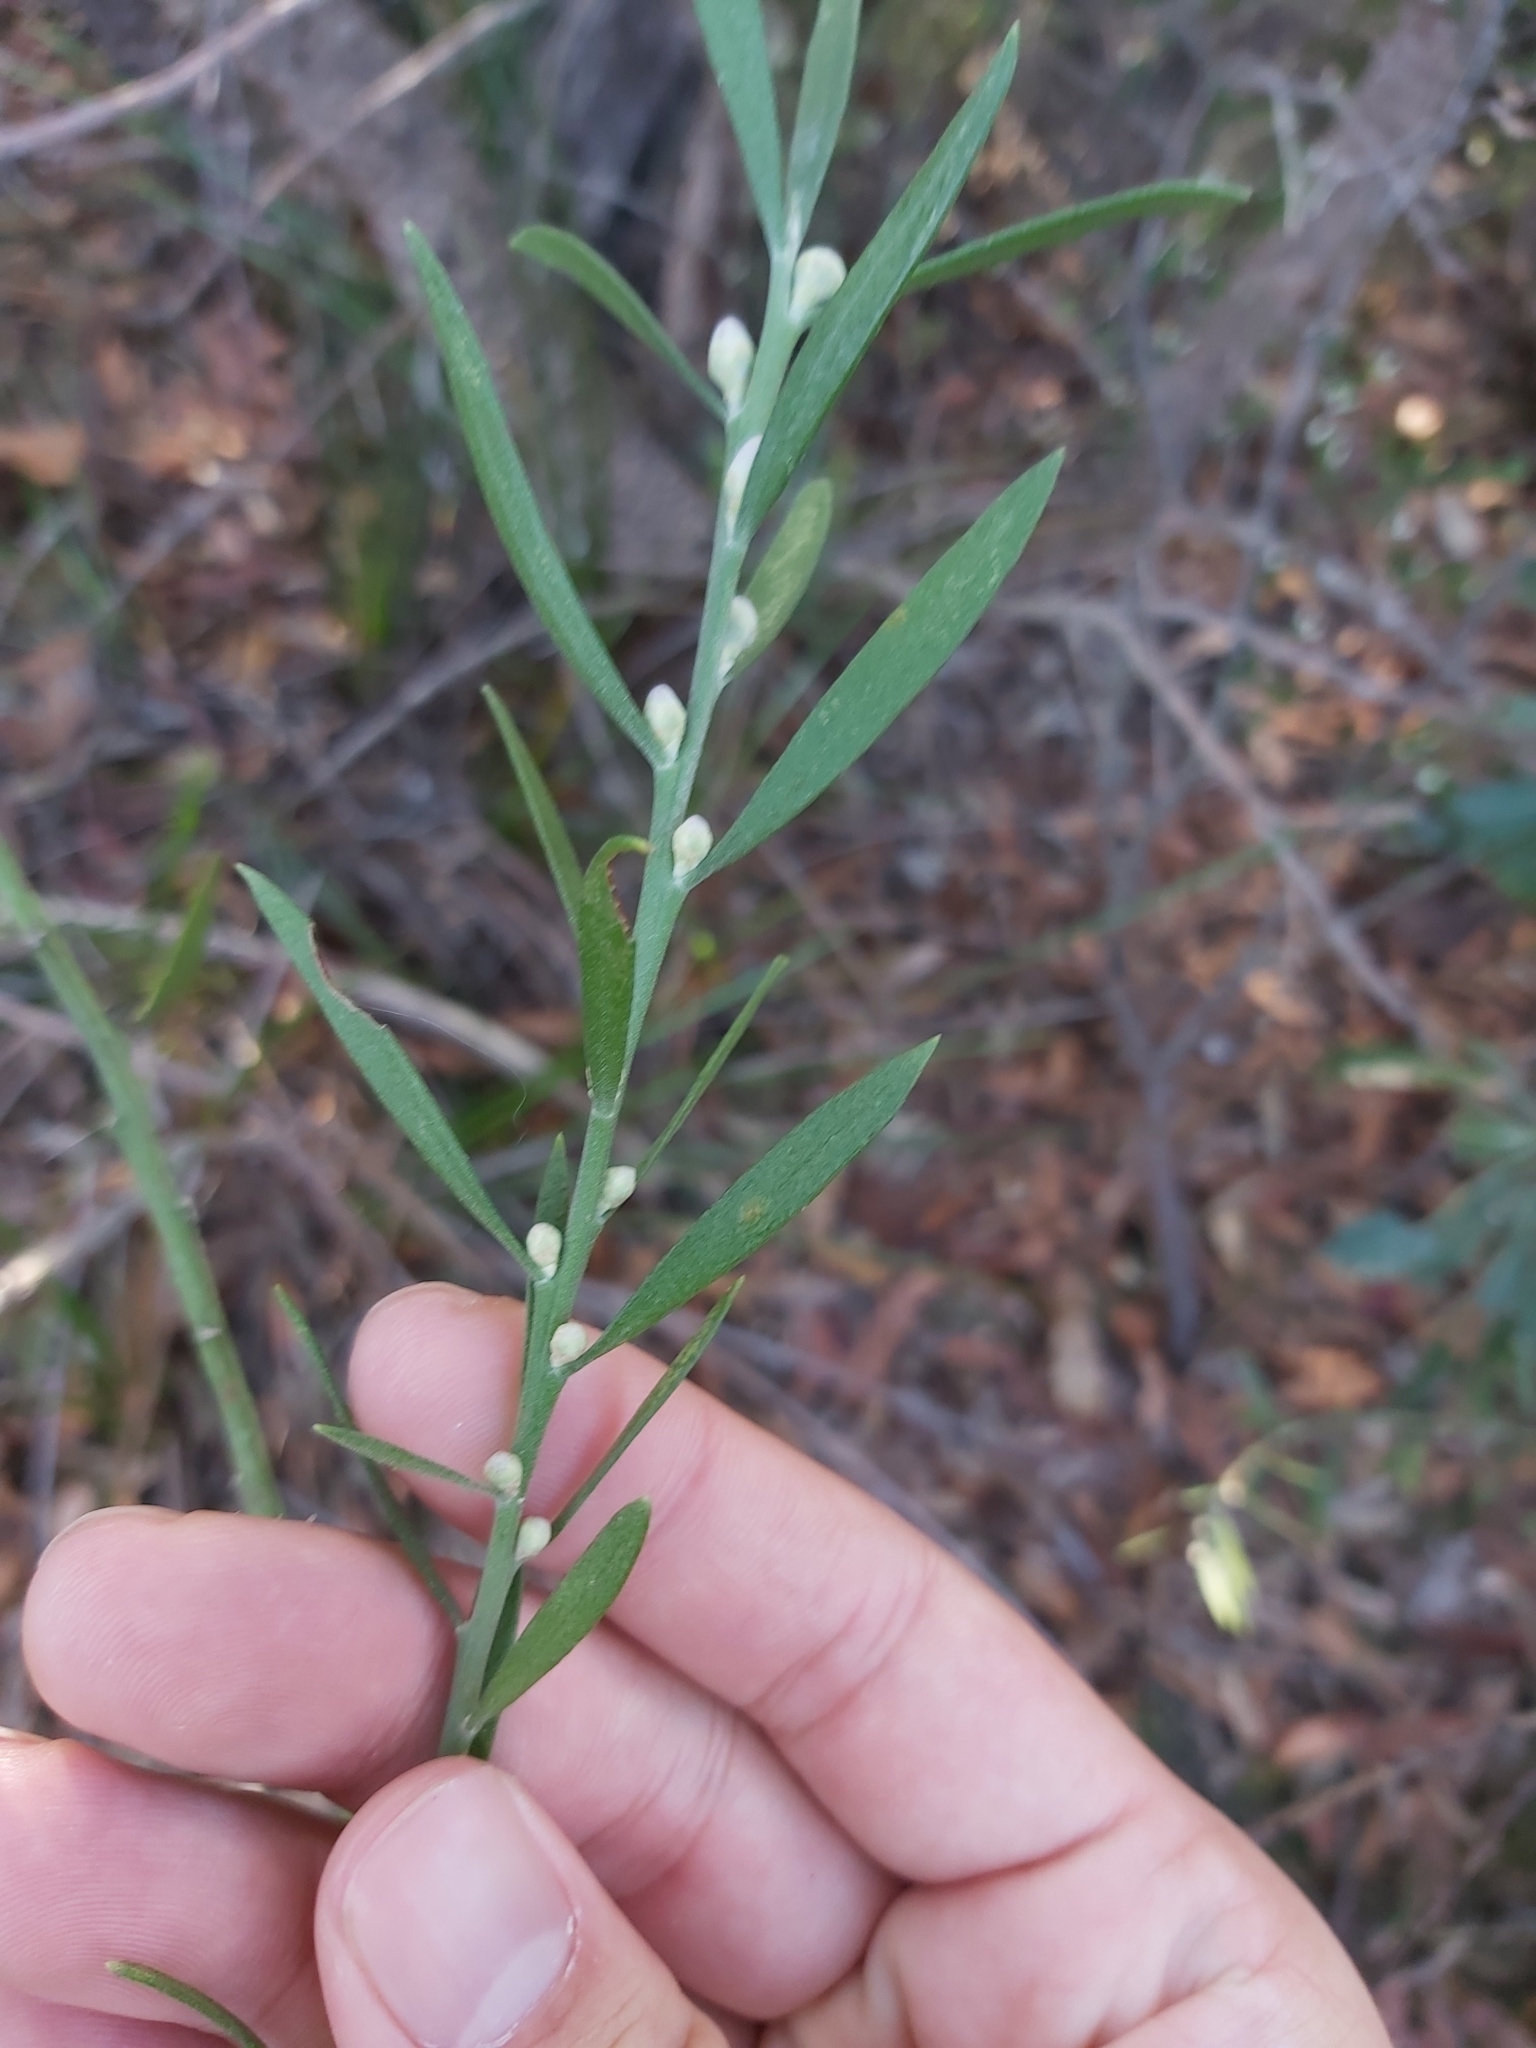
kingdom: Plantae
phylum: Tracheophyta
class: Magnoliopsida
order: Sapindales
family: Rutaceae
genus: Eriostemon
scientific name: Eriostemon australasius
